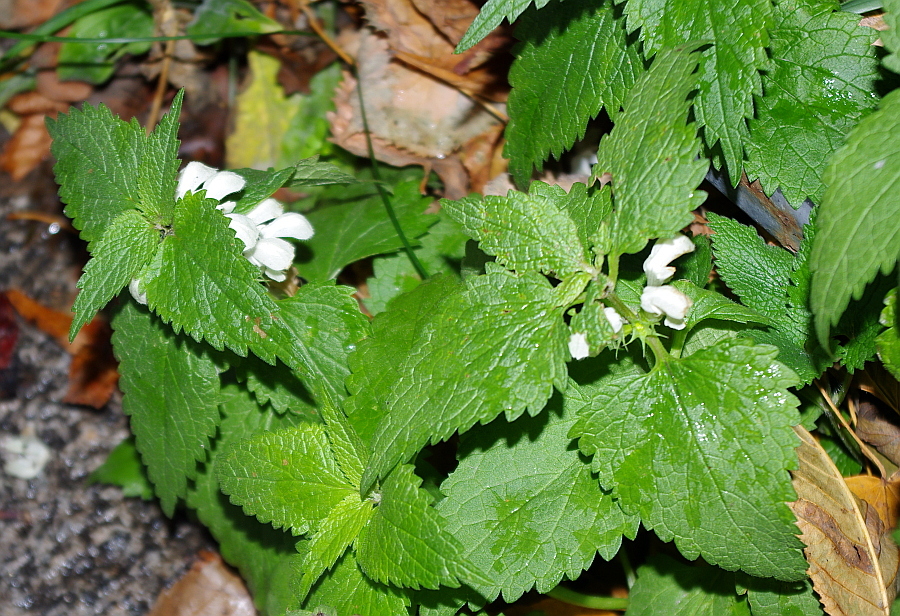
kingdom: Plantae
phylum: Tracheophyta
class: Magnoliopsida
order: Lamiales
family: Lamiaceae
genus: Lamium
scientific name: Lamium album
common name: White dead-nettle
